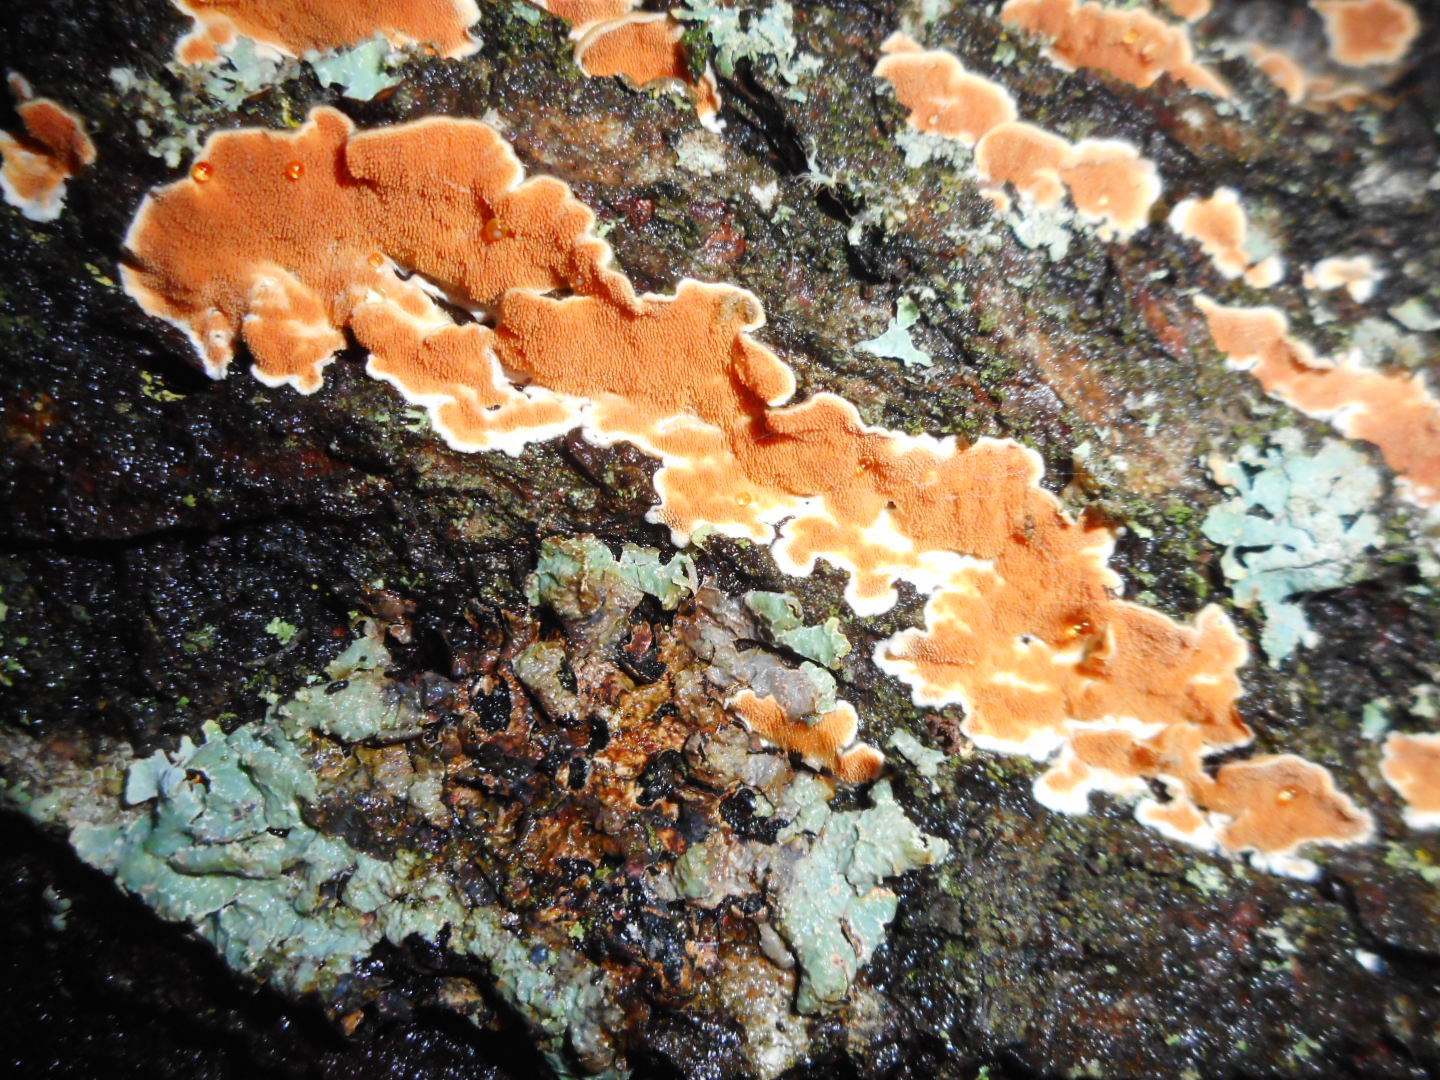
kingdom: Fungi
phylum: Basidiomycota
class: Agaricomycetes
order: Polyporales
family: Steccherinaceae
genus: Steccherinum
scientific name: Steccherinum ochraceum
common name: Ochre spreading tooth
